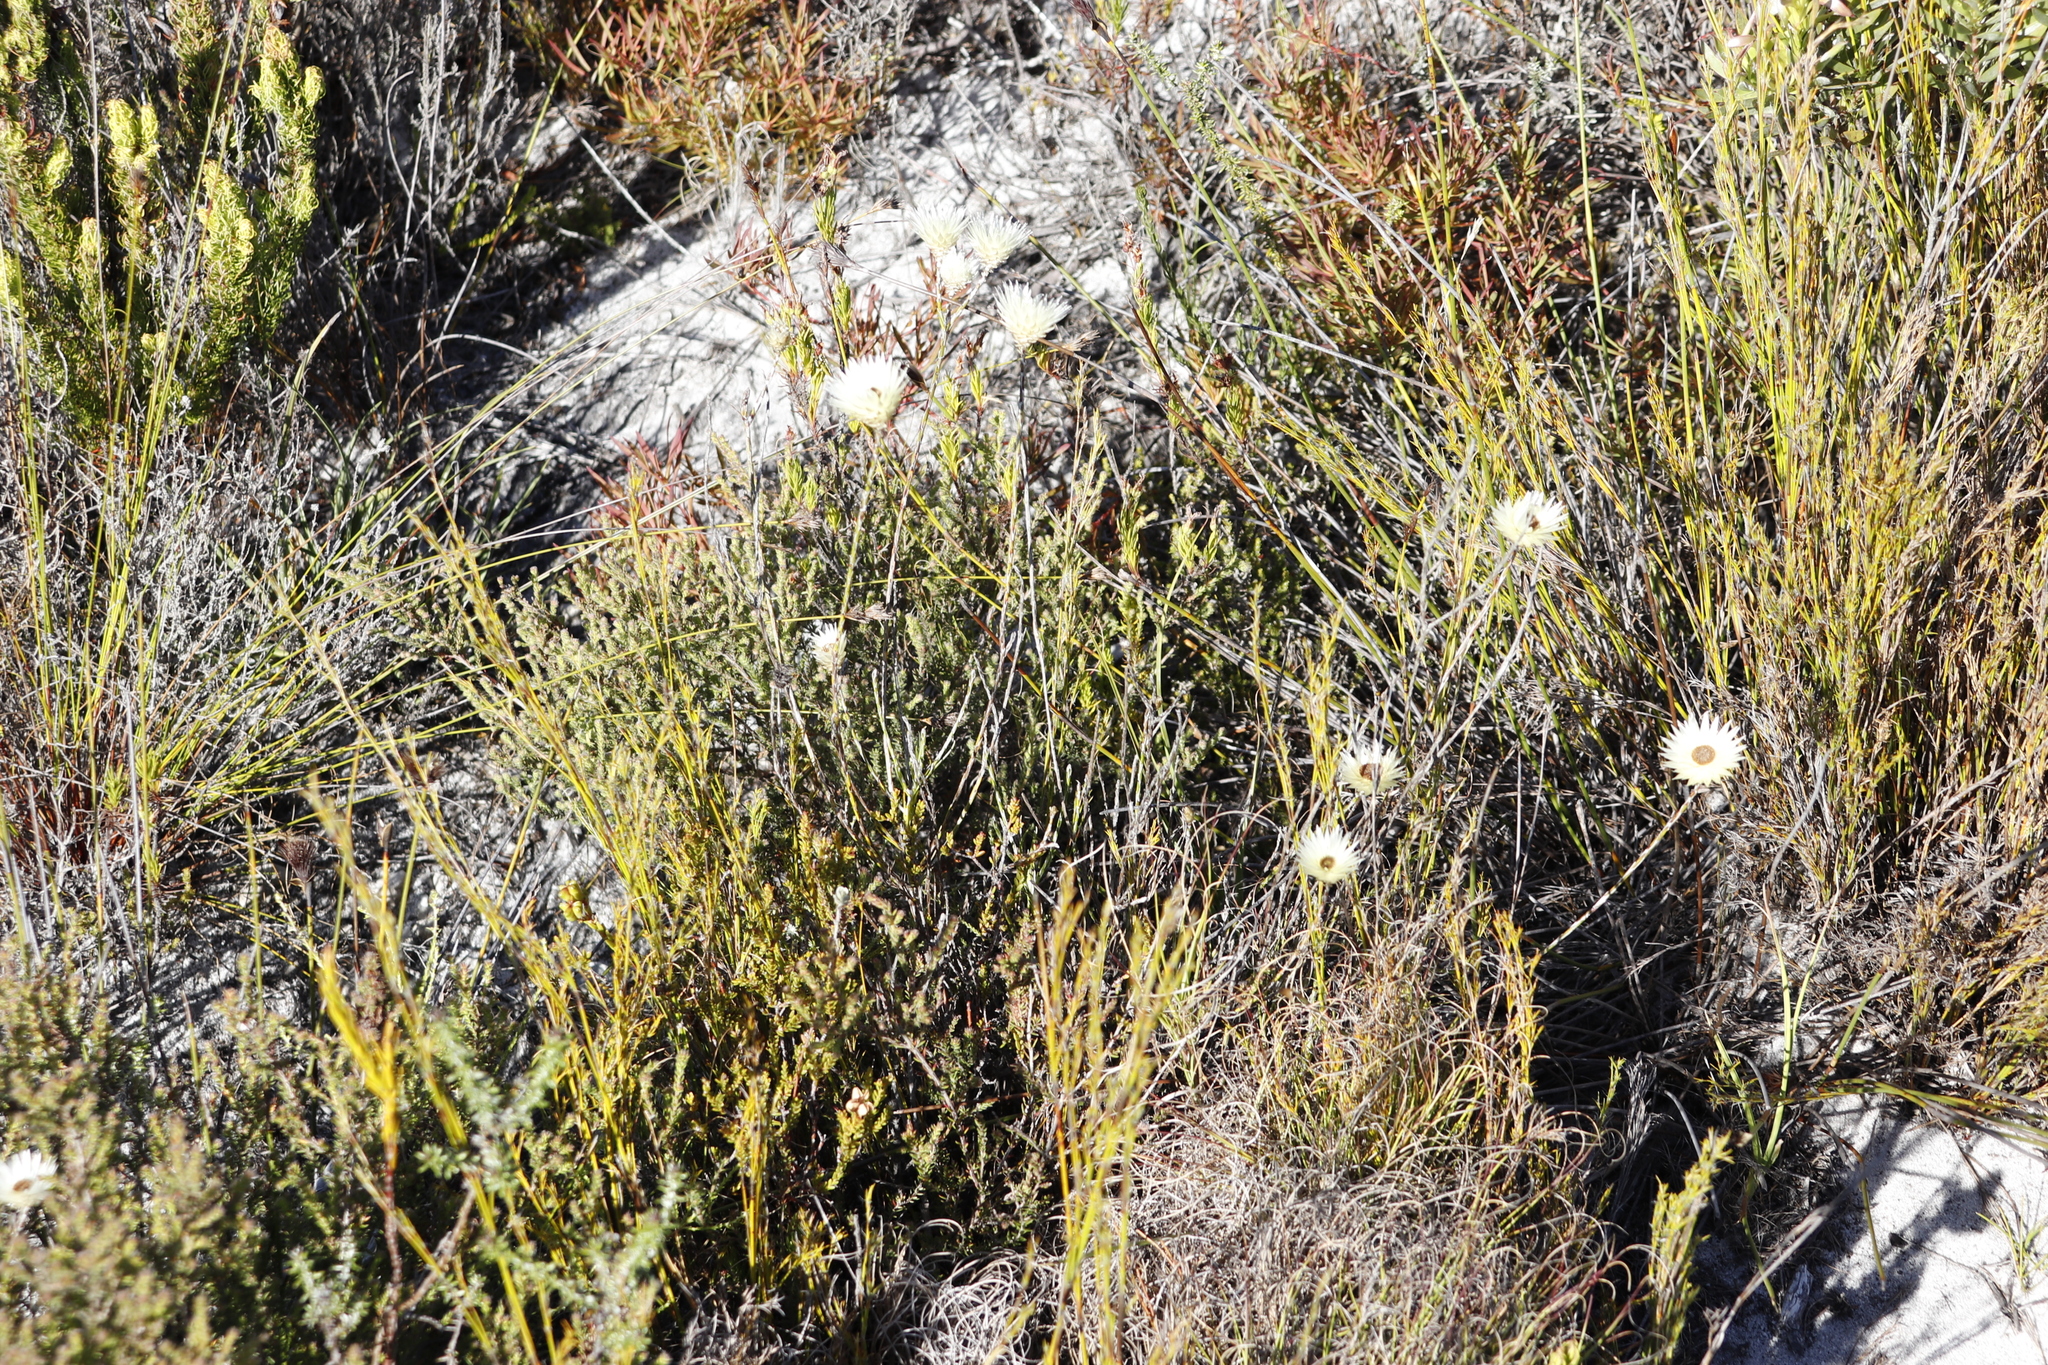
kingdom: Plantae
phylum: Tracheophyta
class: Magnoliopsida
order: Asterales
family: Asteraceae
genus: Edmondia
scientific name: Edmondia sesamoides
